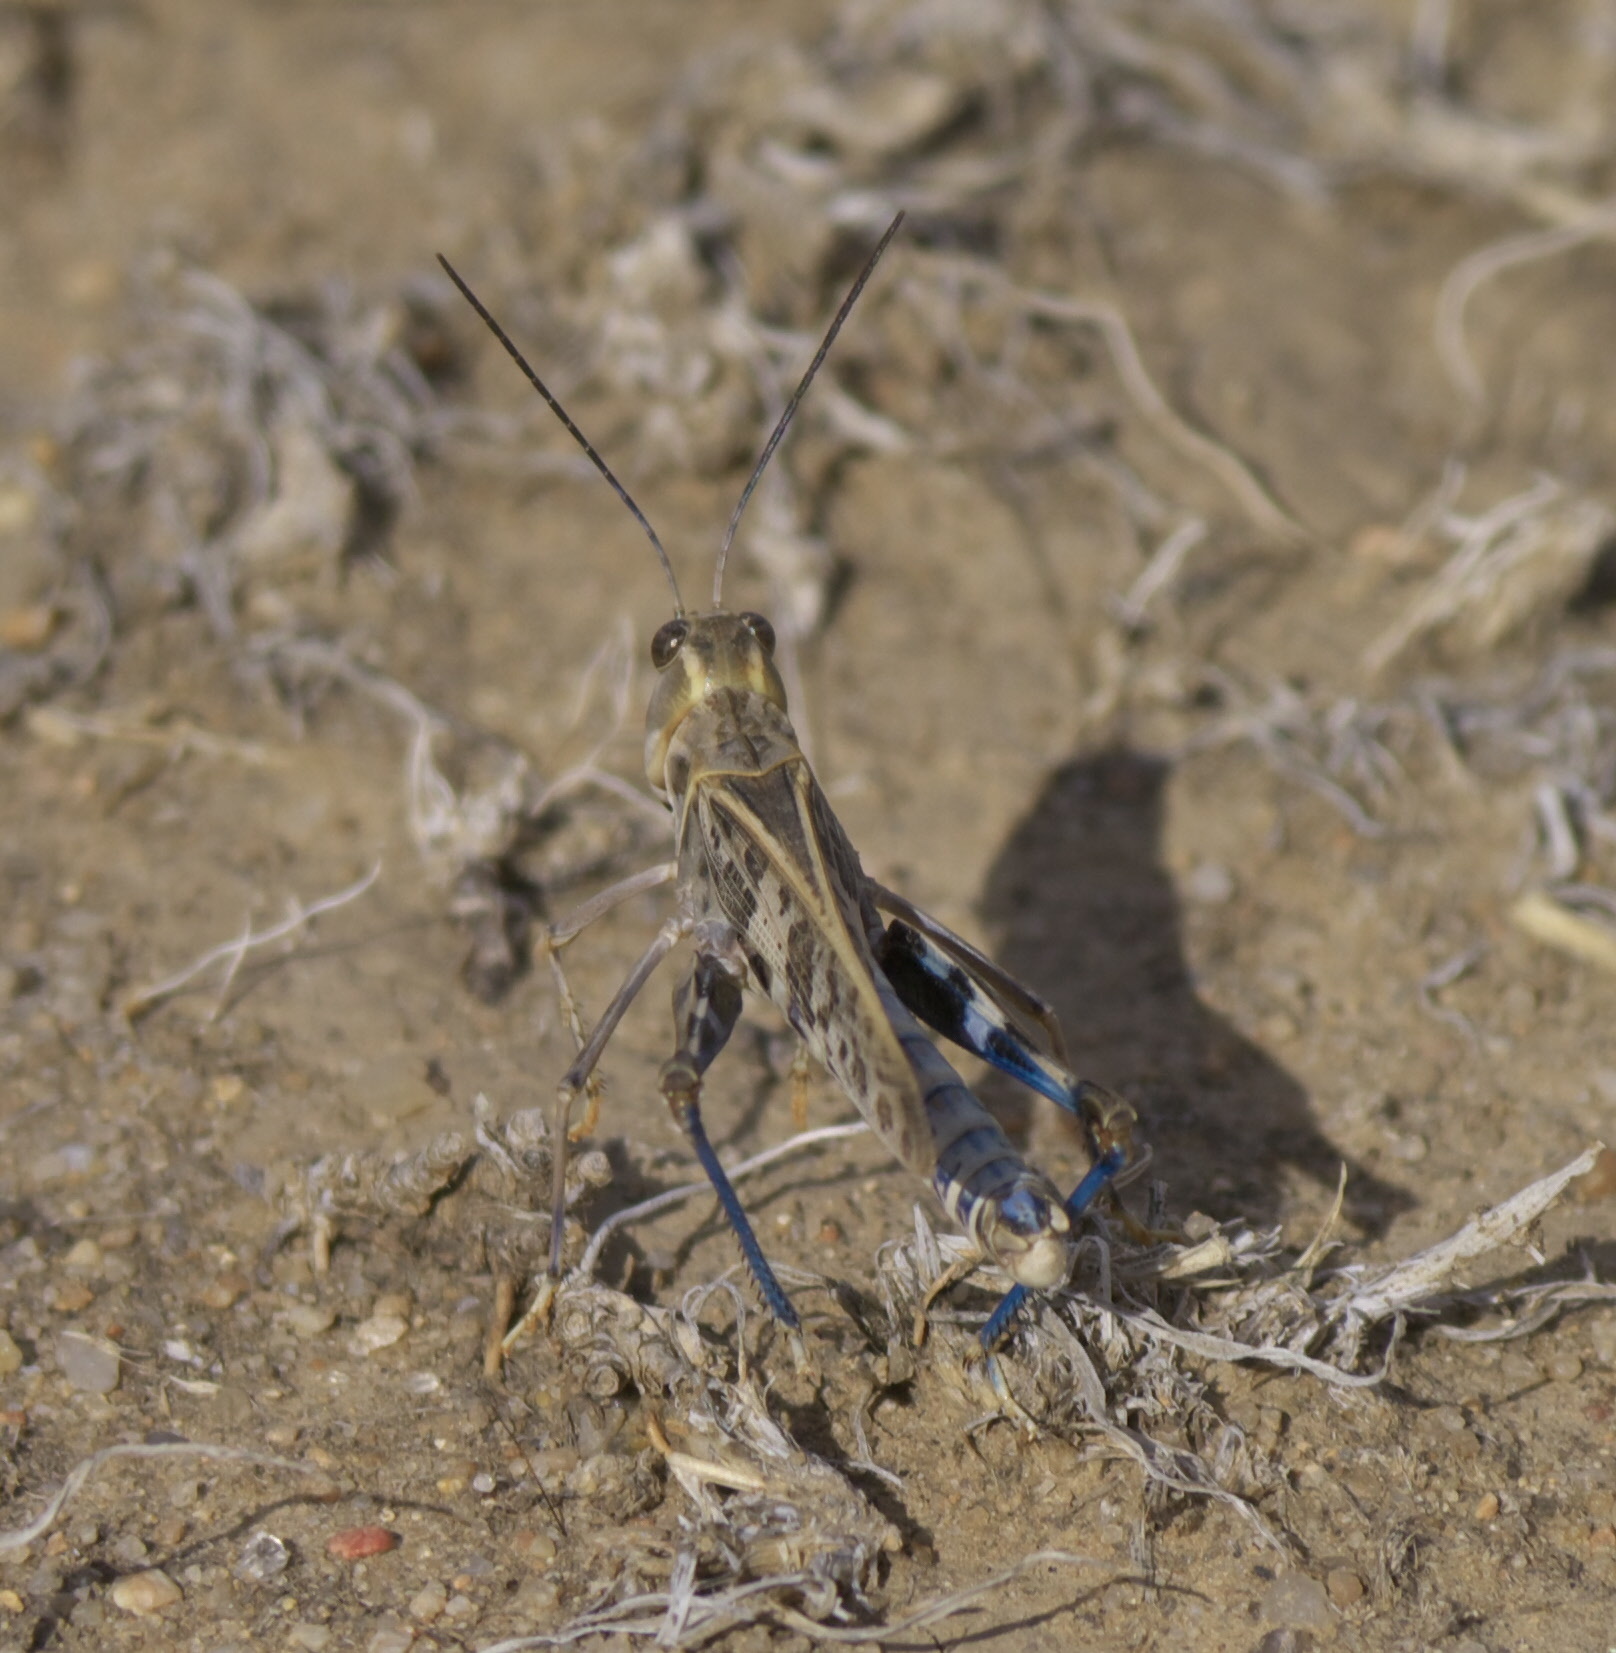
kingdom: Animalia
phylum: Arthropoda
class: Insecta
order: Orthoptera
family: Acrididae
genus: Metator
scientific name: Metator pardalinus
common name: Blue-legged grasshopper
